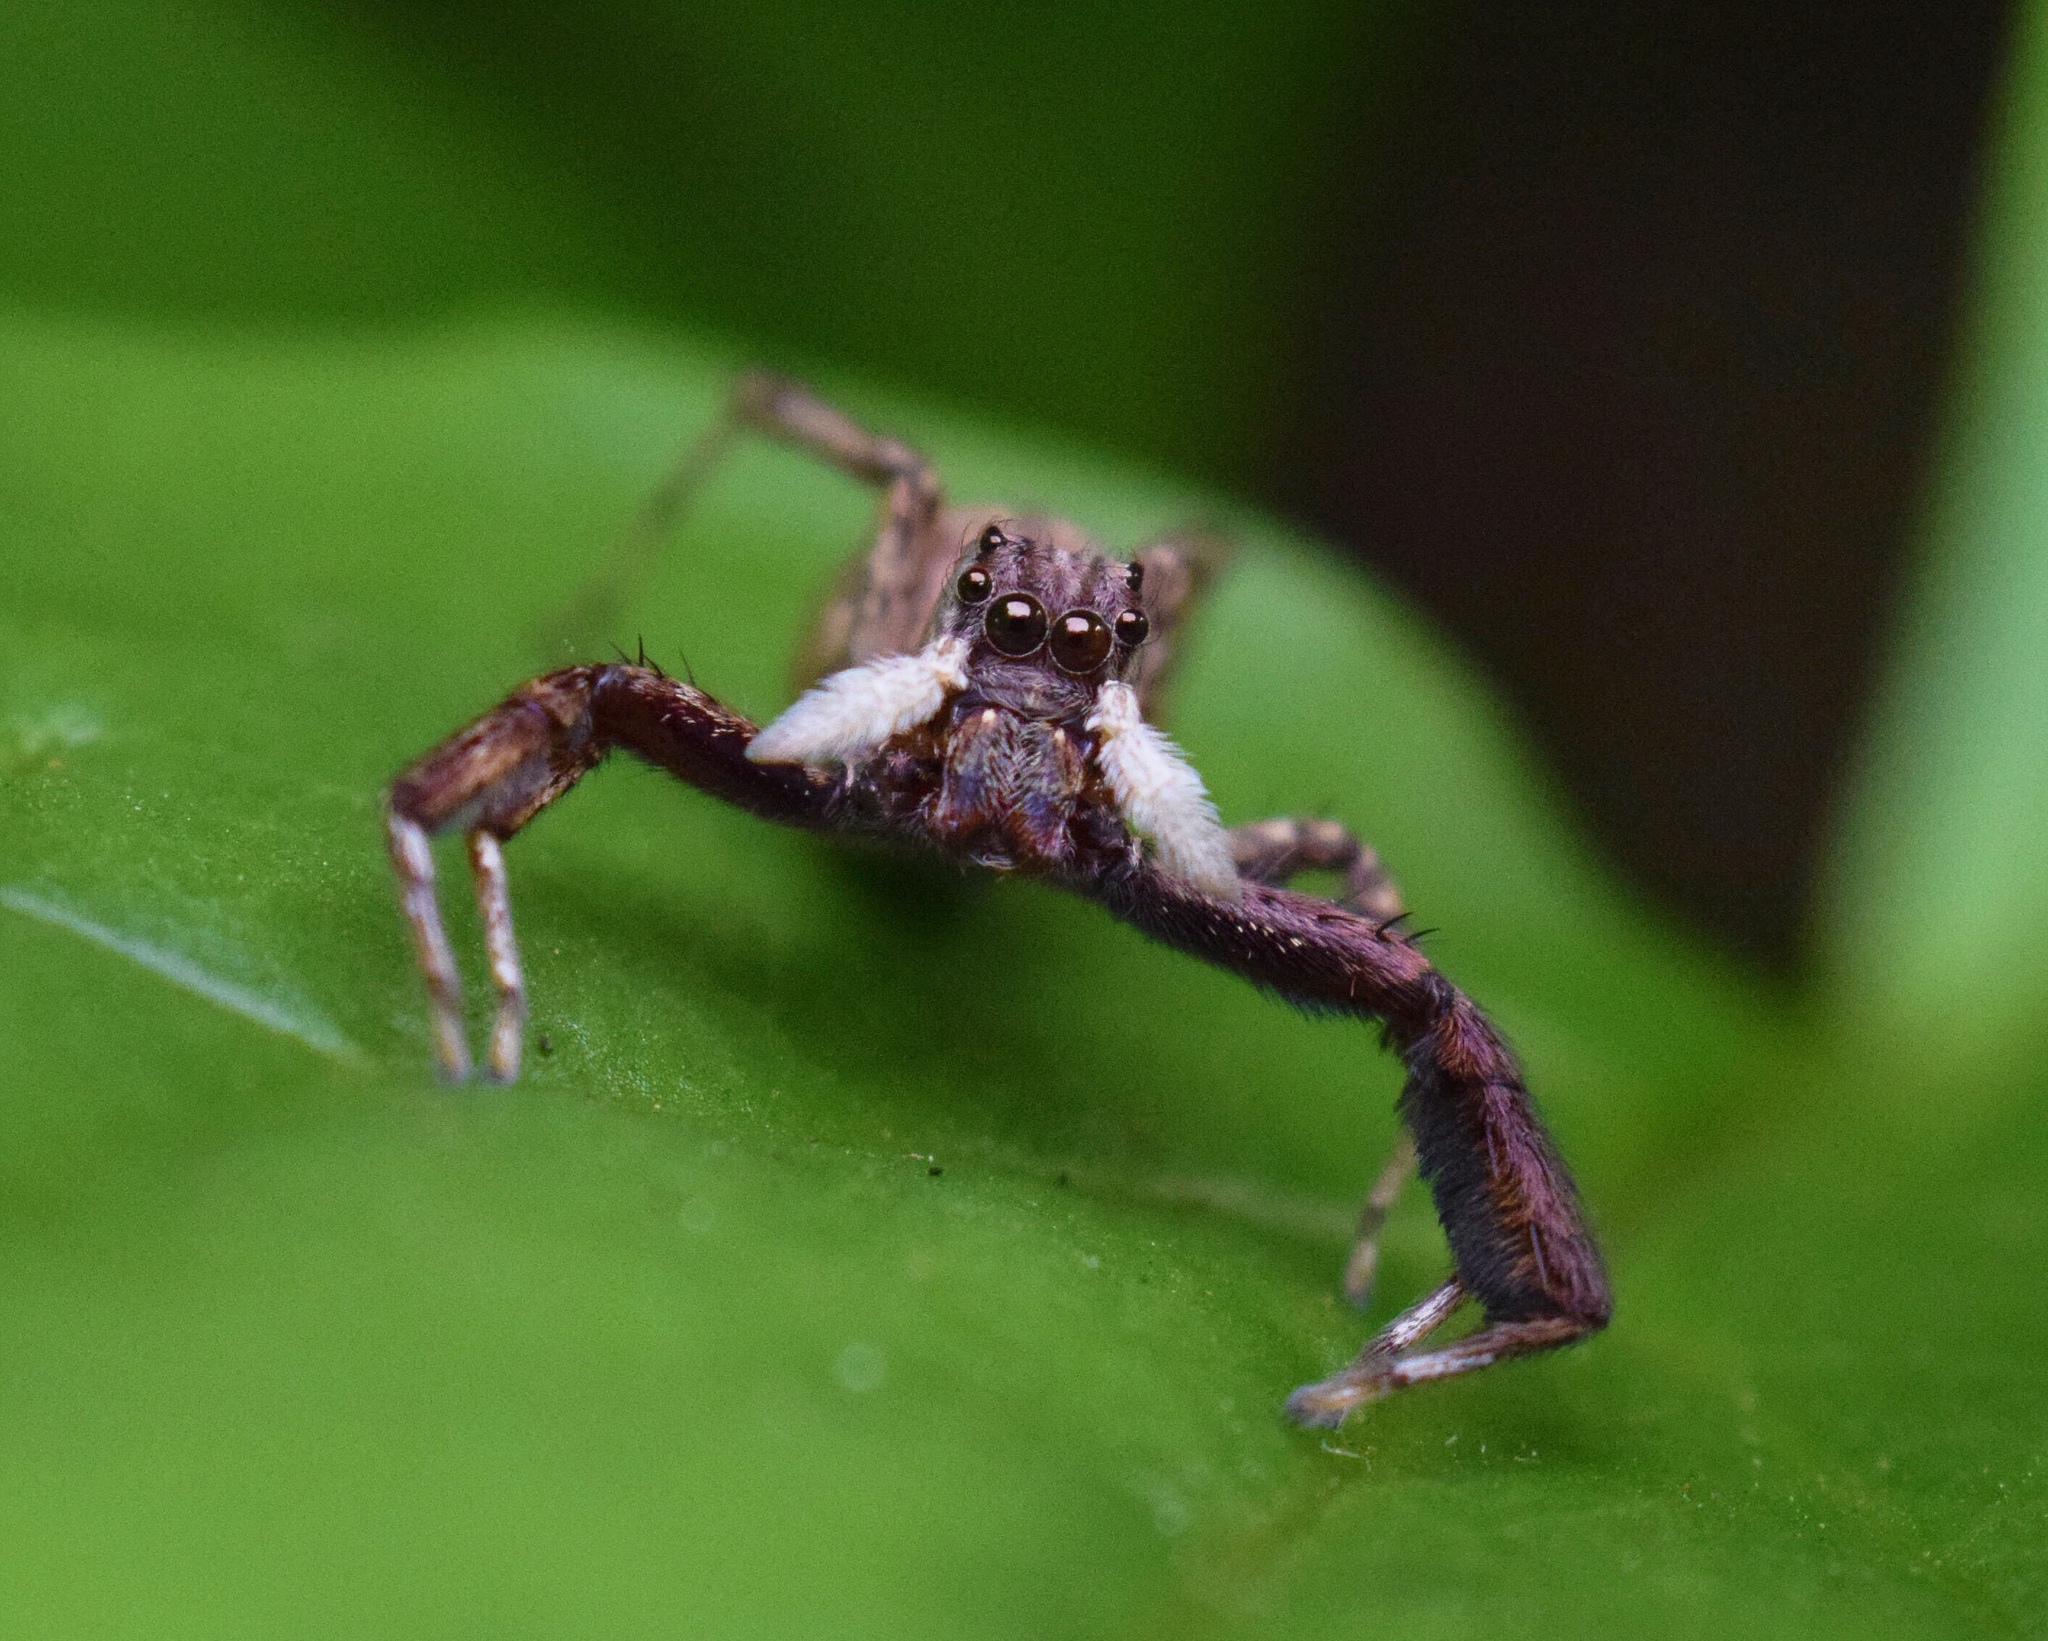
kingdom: Animalia
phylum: Arthropoda
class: Arachnida
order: Araneae
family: Salticidae
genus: Veissella
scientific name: Veissella durbani
